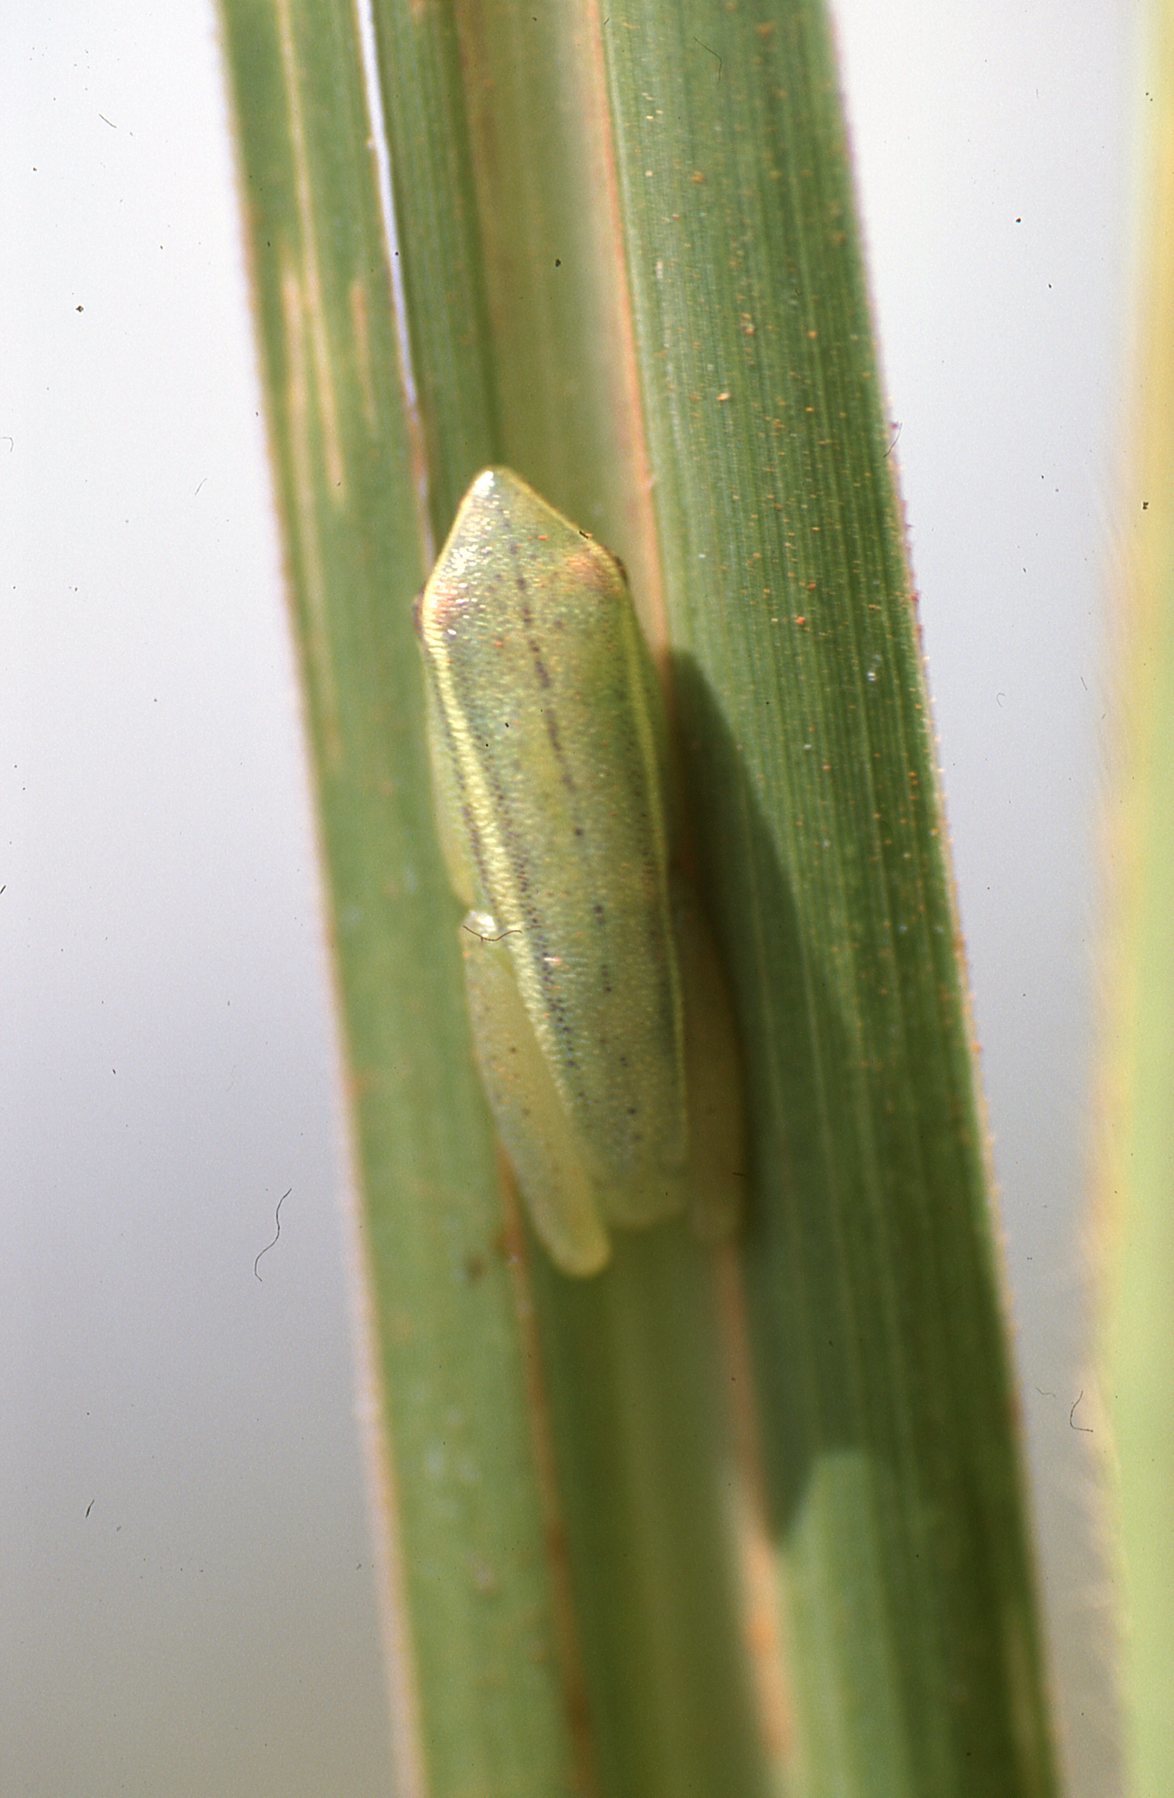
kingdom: Animalia
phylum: Chordata
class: Amphibia
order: Anura
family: Hyperoliidae
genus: Hyperolius
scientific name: Hyperolius howelli
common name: Howell's long reed frog
